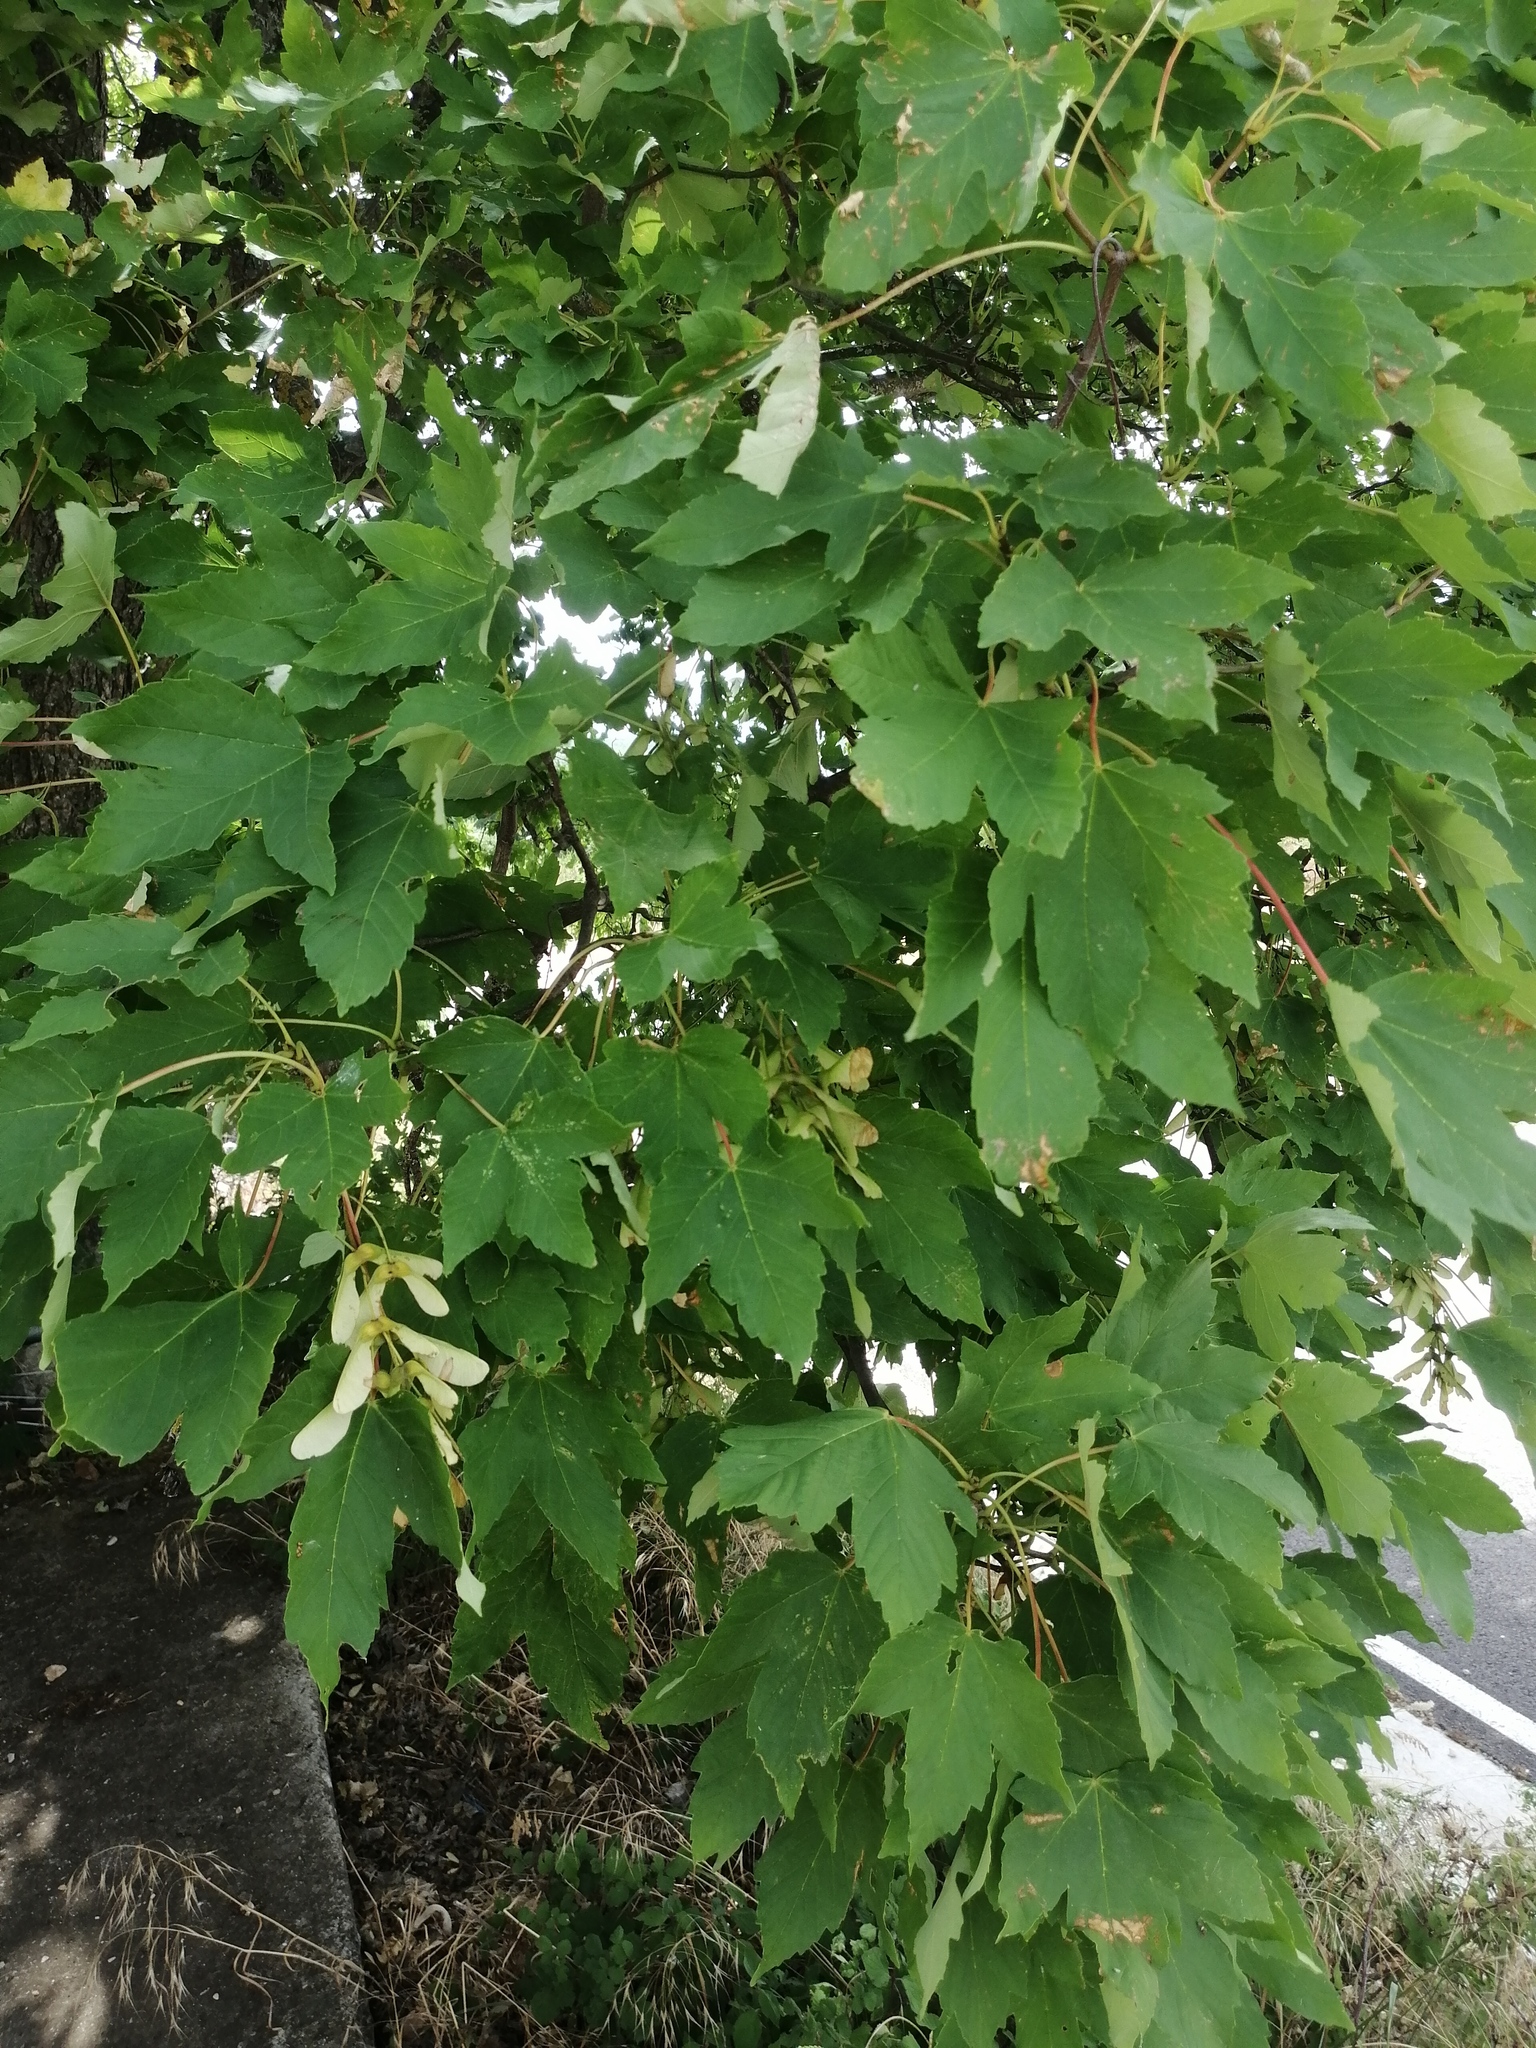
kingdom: Plantae
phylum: Tracheophyta
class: Magnoliopsida
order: Sapindales
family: Sapindaceae
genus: Acer
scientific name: Acer pseudoplatanus
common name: Sycamore
